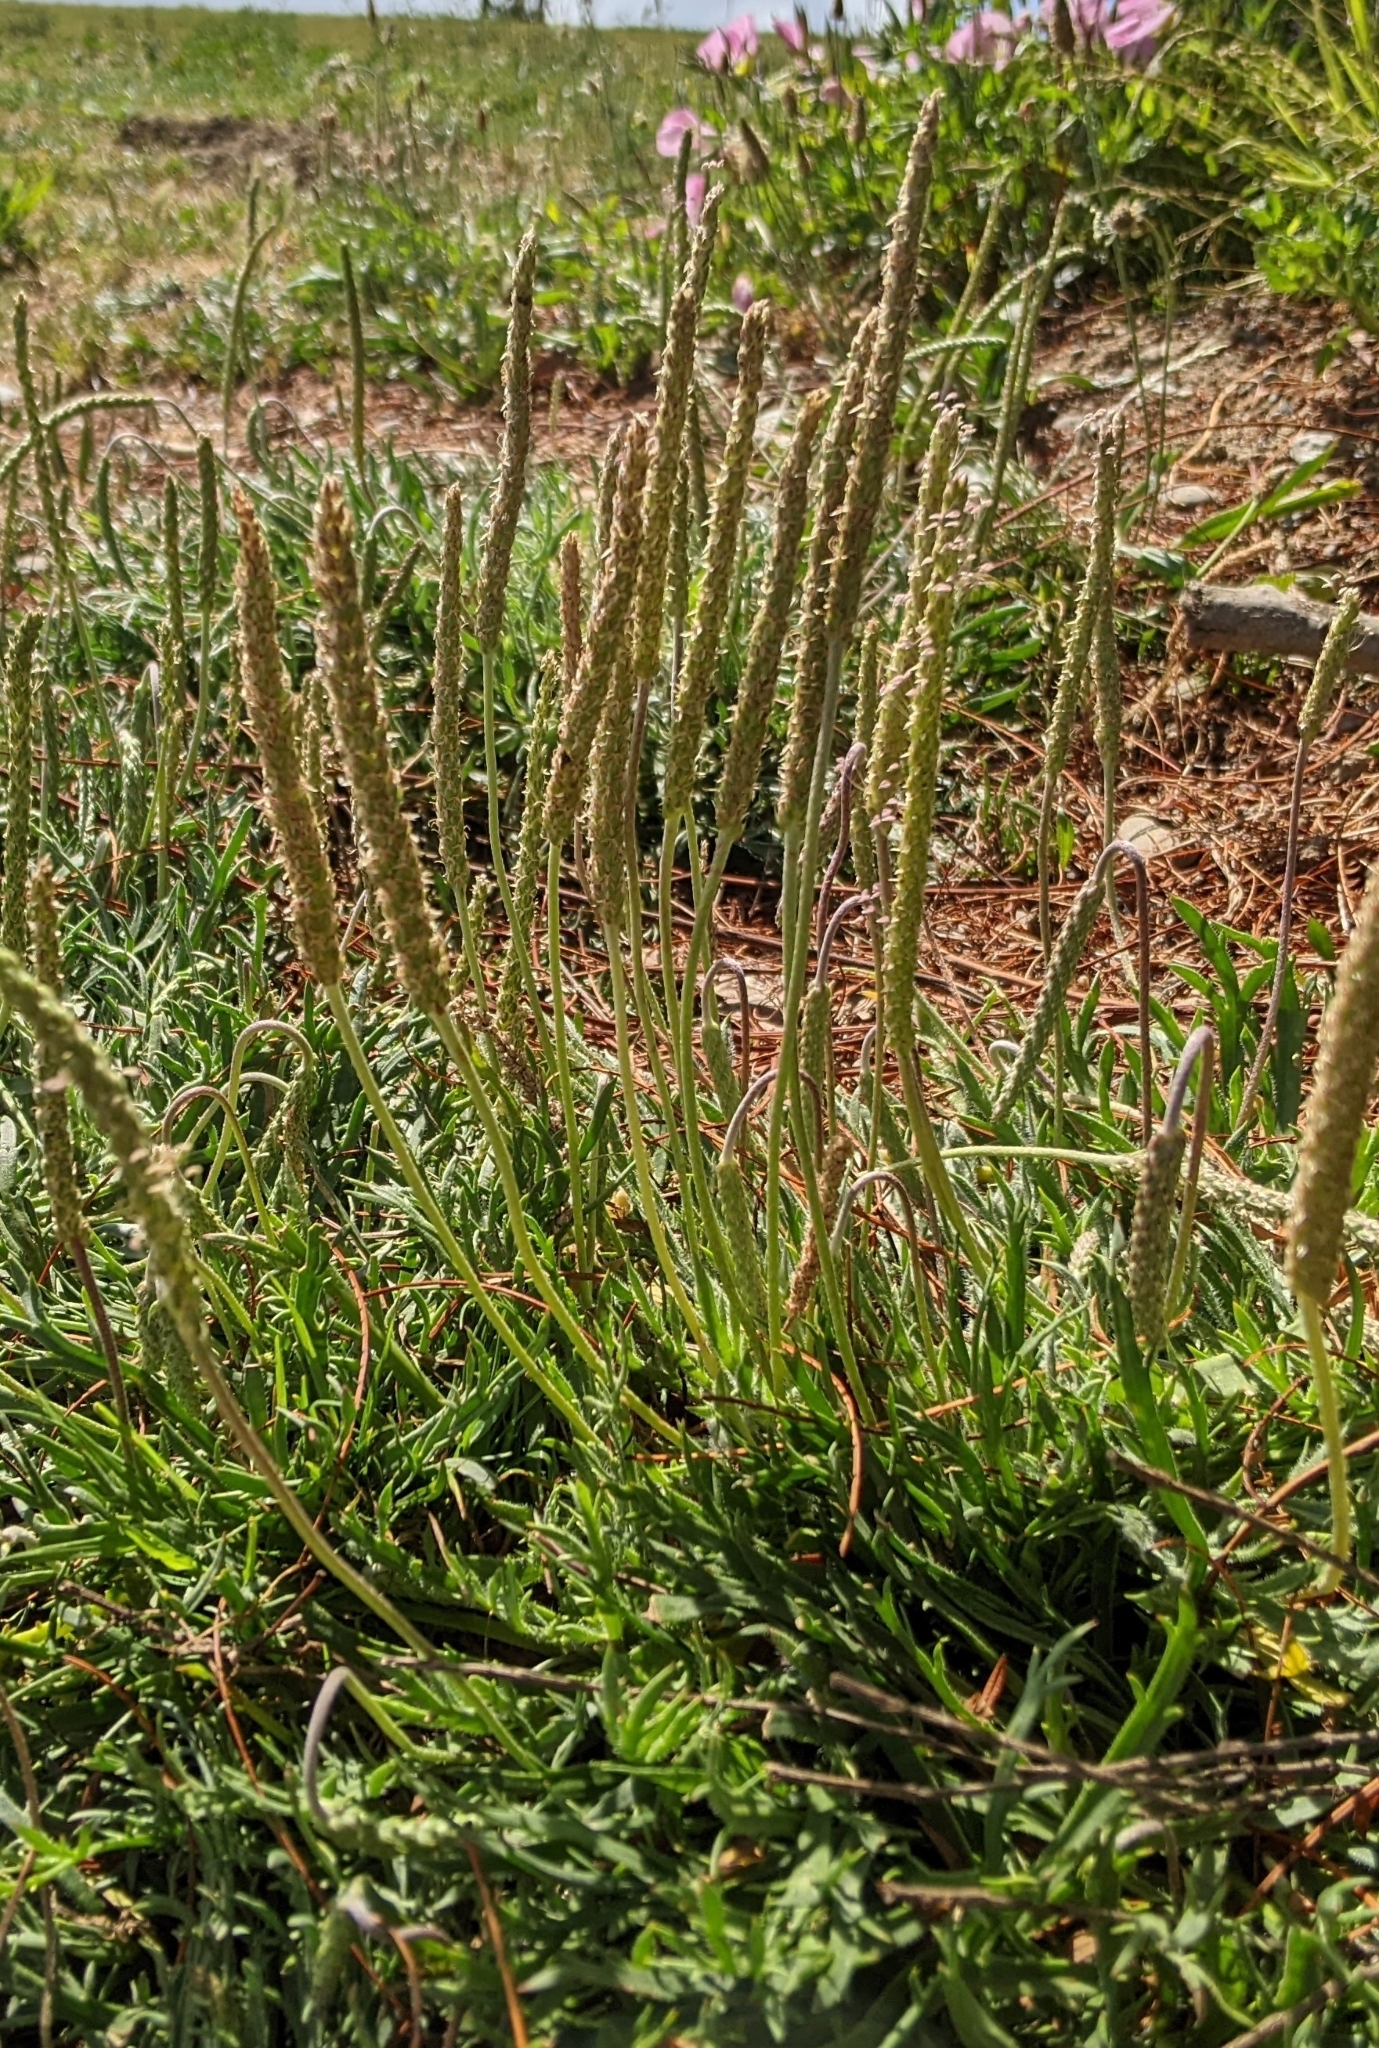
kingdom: Plantae
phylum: Tracheophyta
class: Magnoliopsida
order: Lamiales
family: Plantaginaceae
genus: Plantago
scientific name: Plantago coronopus
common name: Buck's-horn plantain
